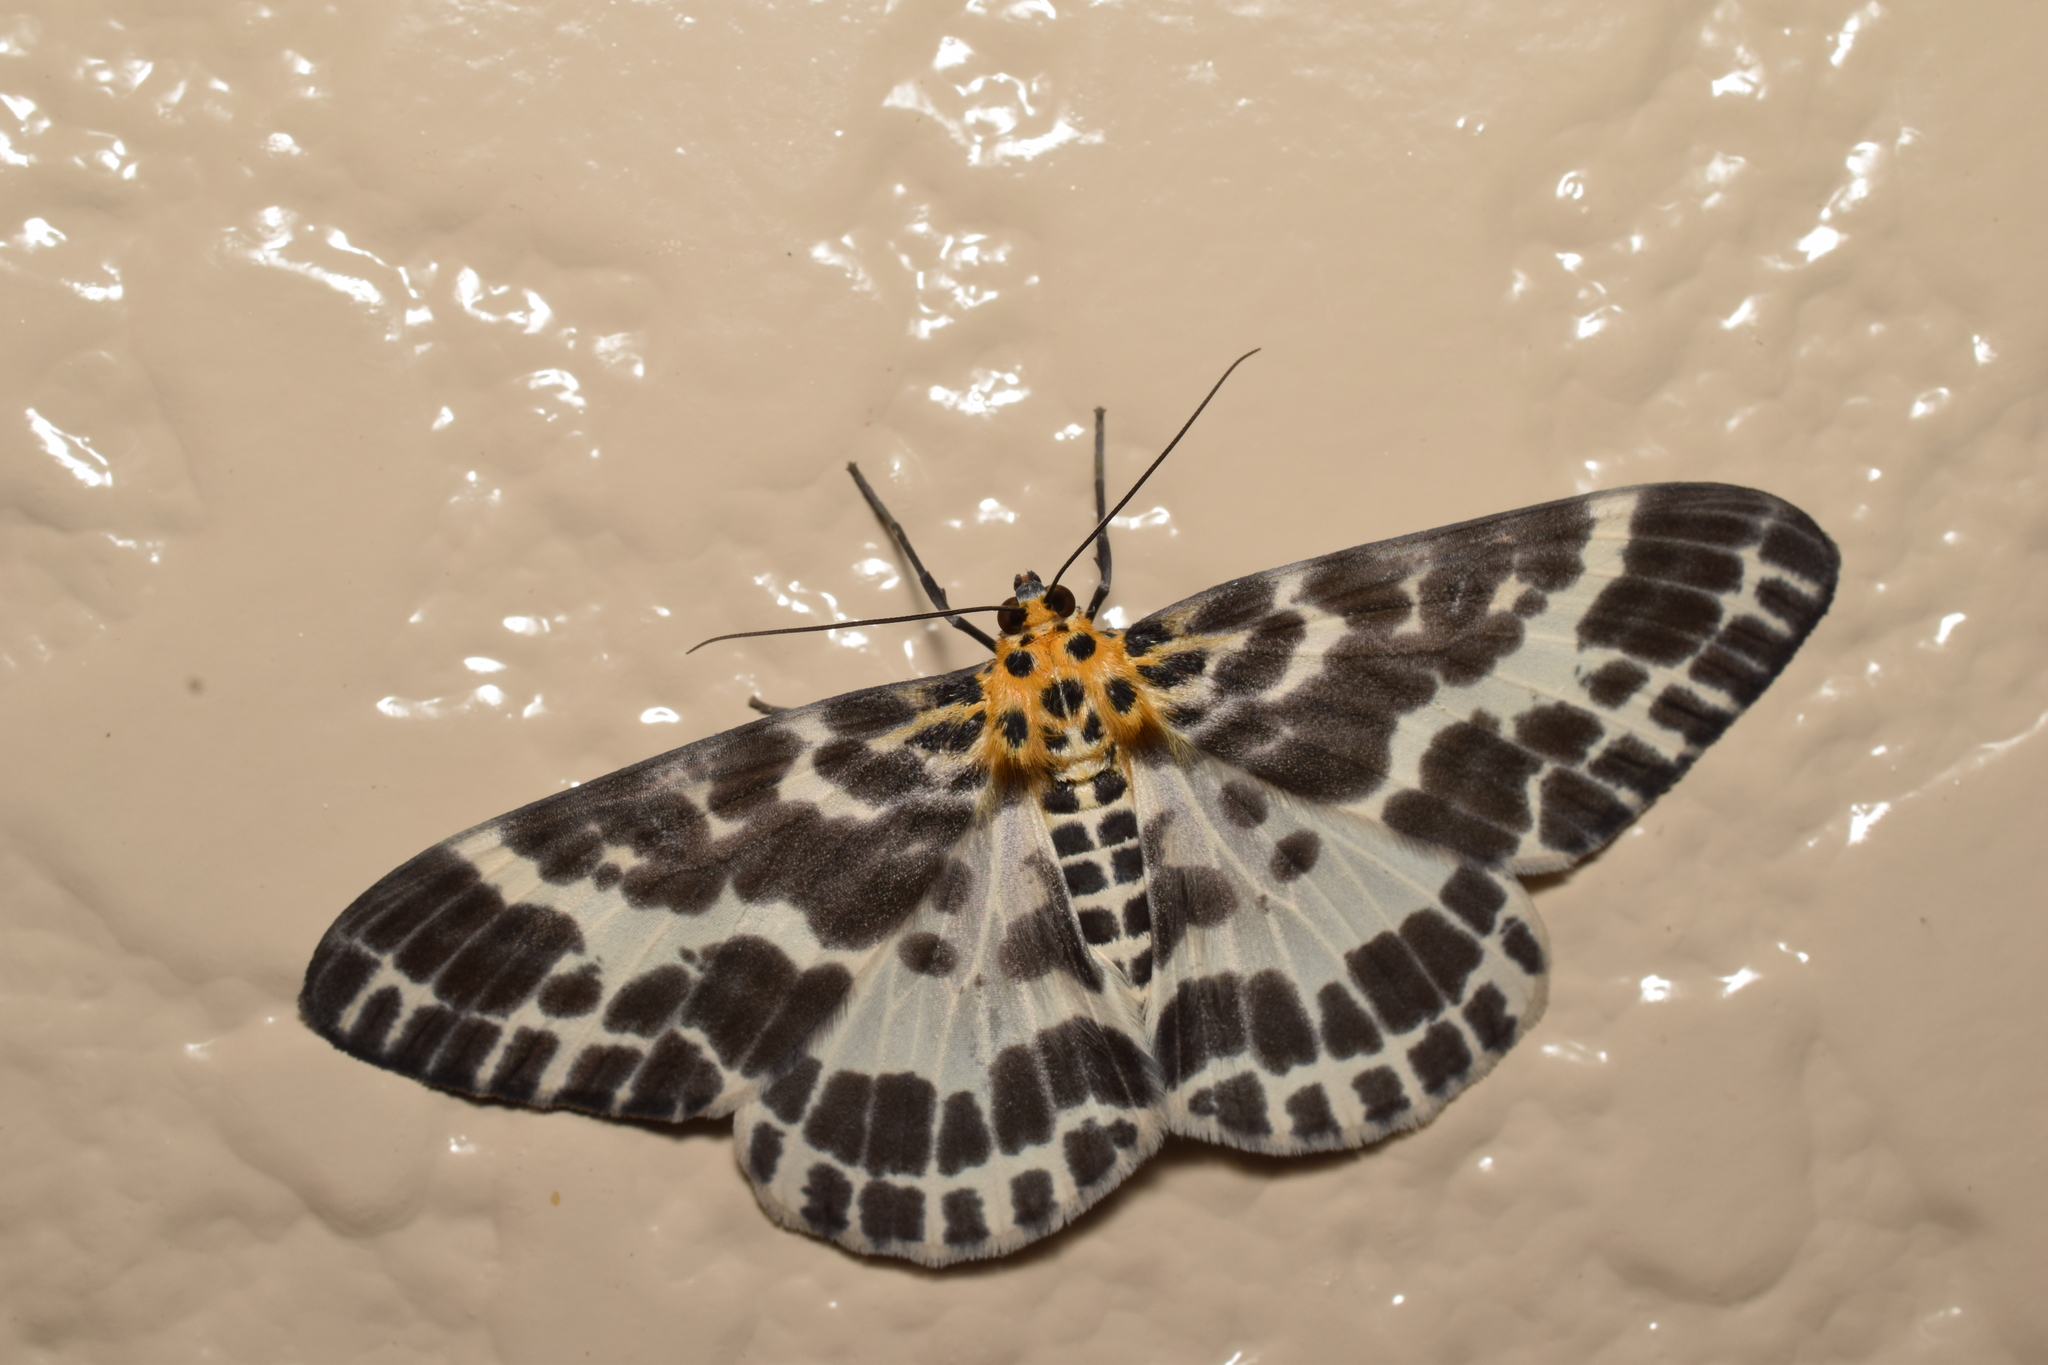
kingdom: Animalia
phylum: Arthropoda
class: Insecta
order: Lepidoptera
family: Geometridae
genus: Pogonopygia
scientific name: Pogonopygia nigralbata
